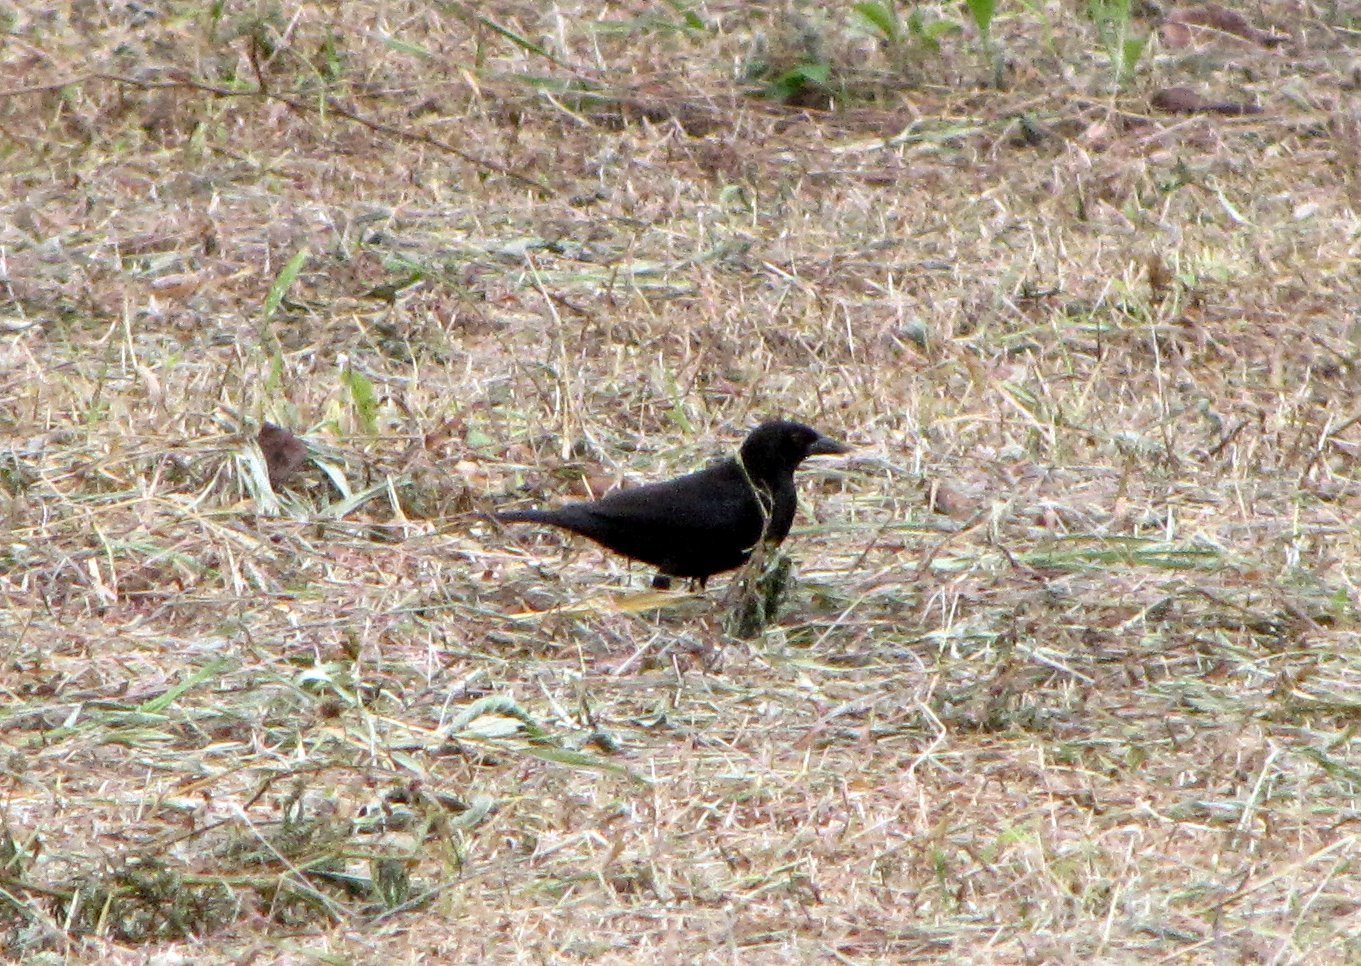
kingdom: Animalia
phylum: Chordata
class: Aves
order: Passeriformes
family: Icteridae
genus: Molothrus
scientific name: Molothrus aeneus
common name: Bronzed cowbird
